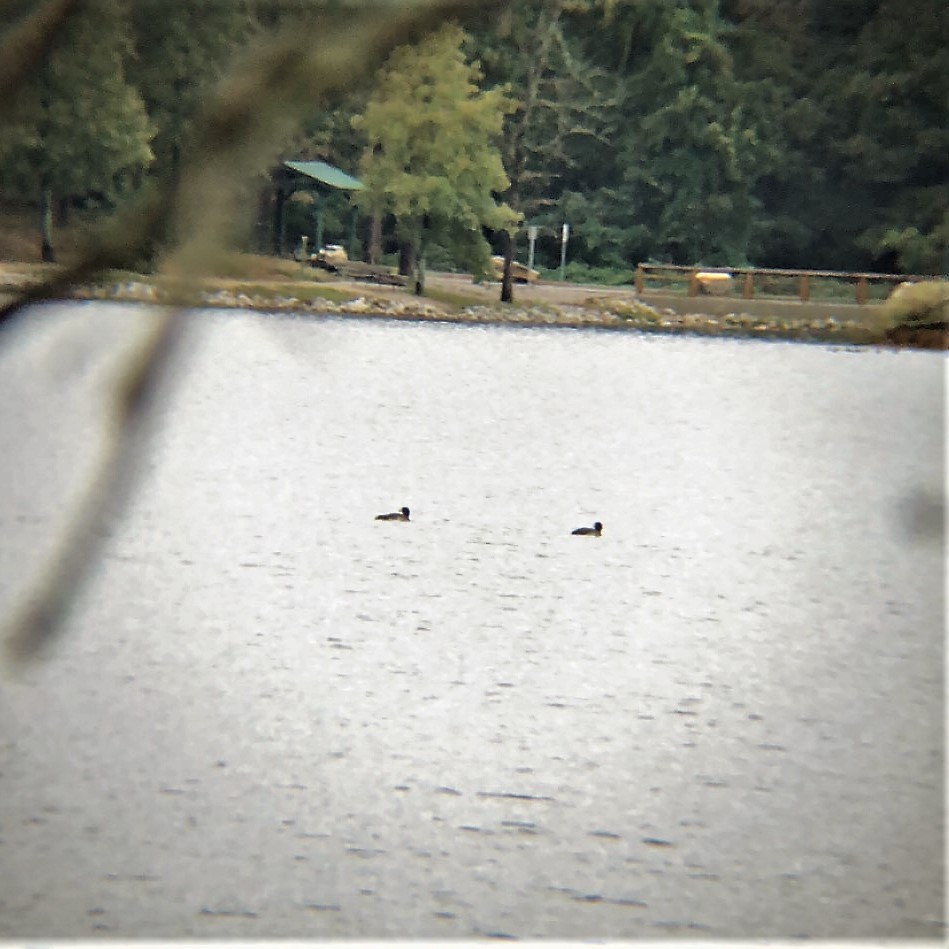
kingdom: Animalia
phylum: Chordata
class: Aves
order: Gaviiformes
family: Gaviidae
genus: Gavia
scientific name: Gavia immer
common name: Common loon
